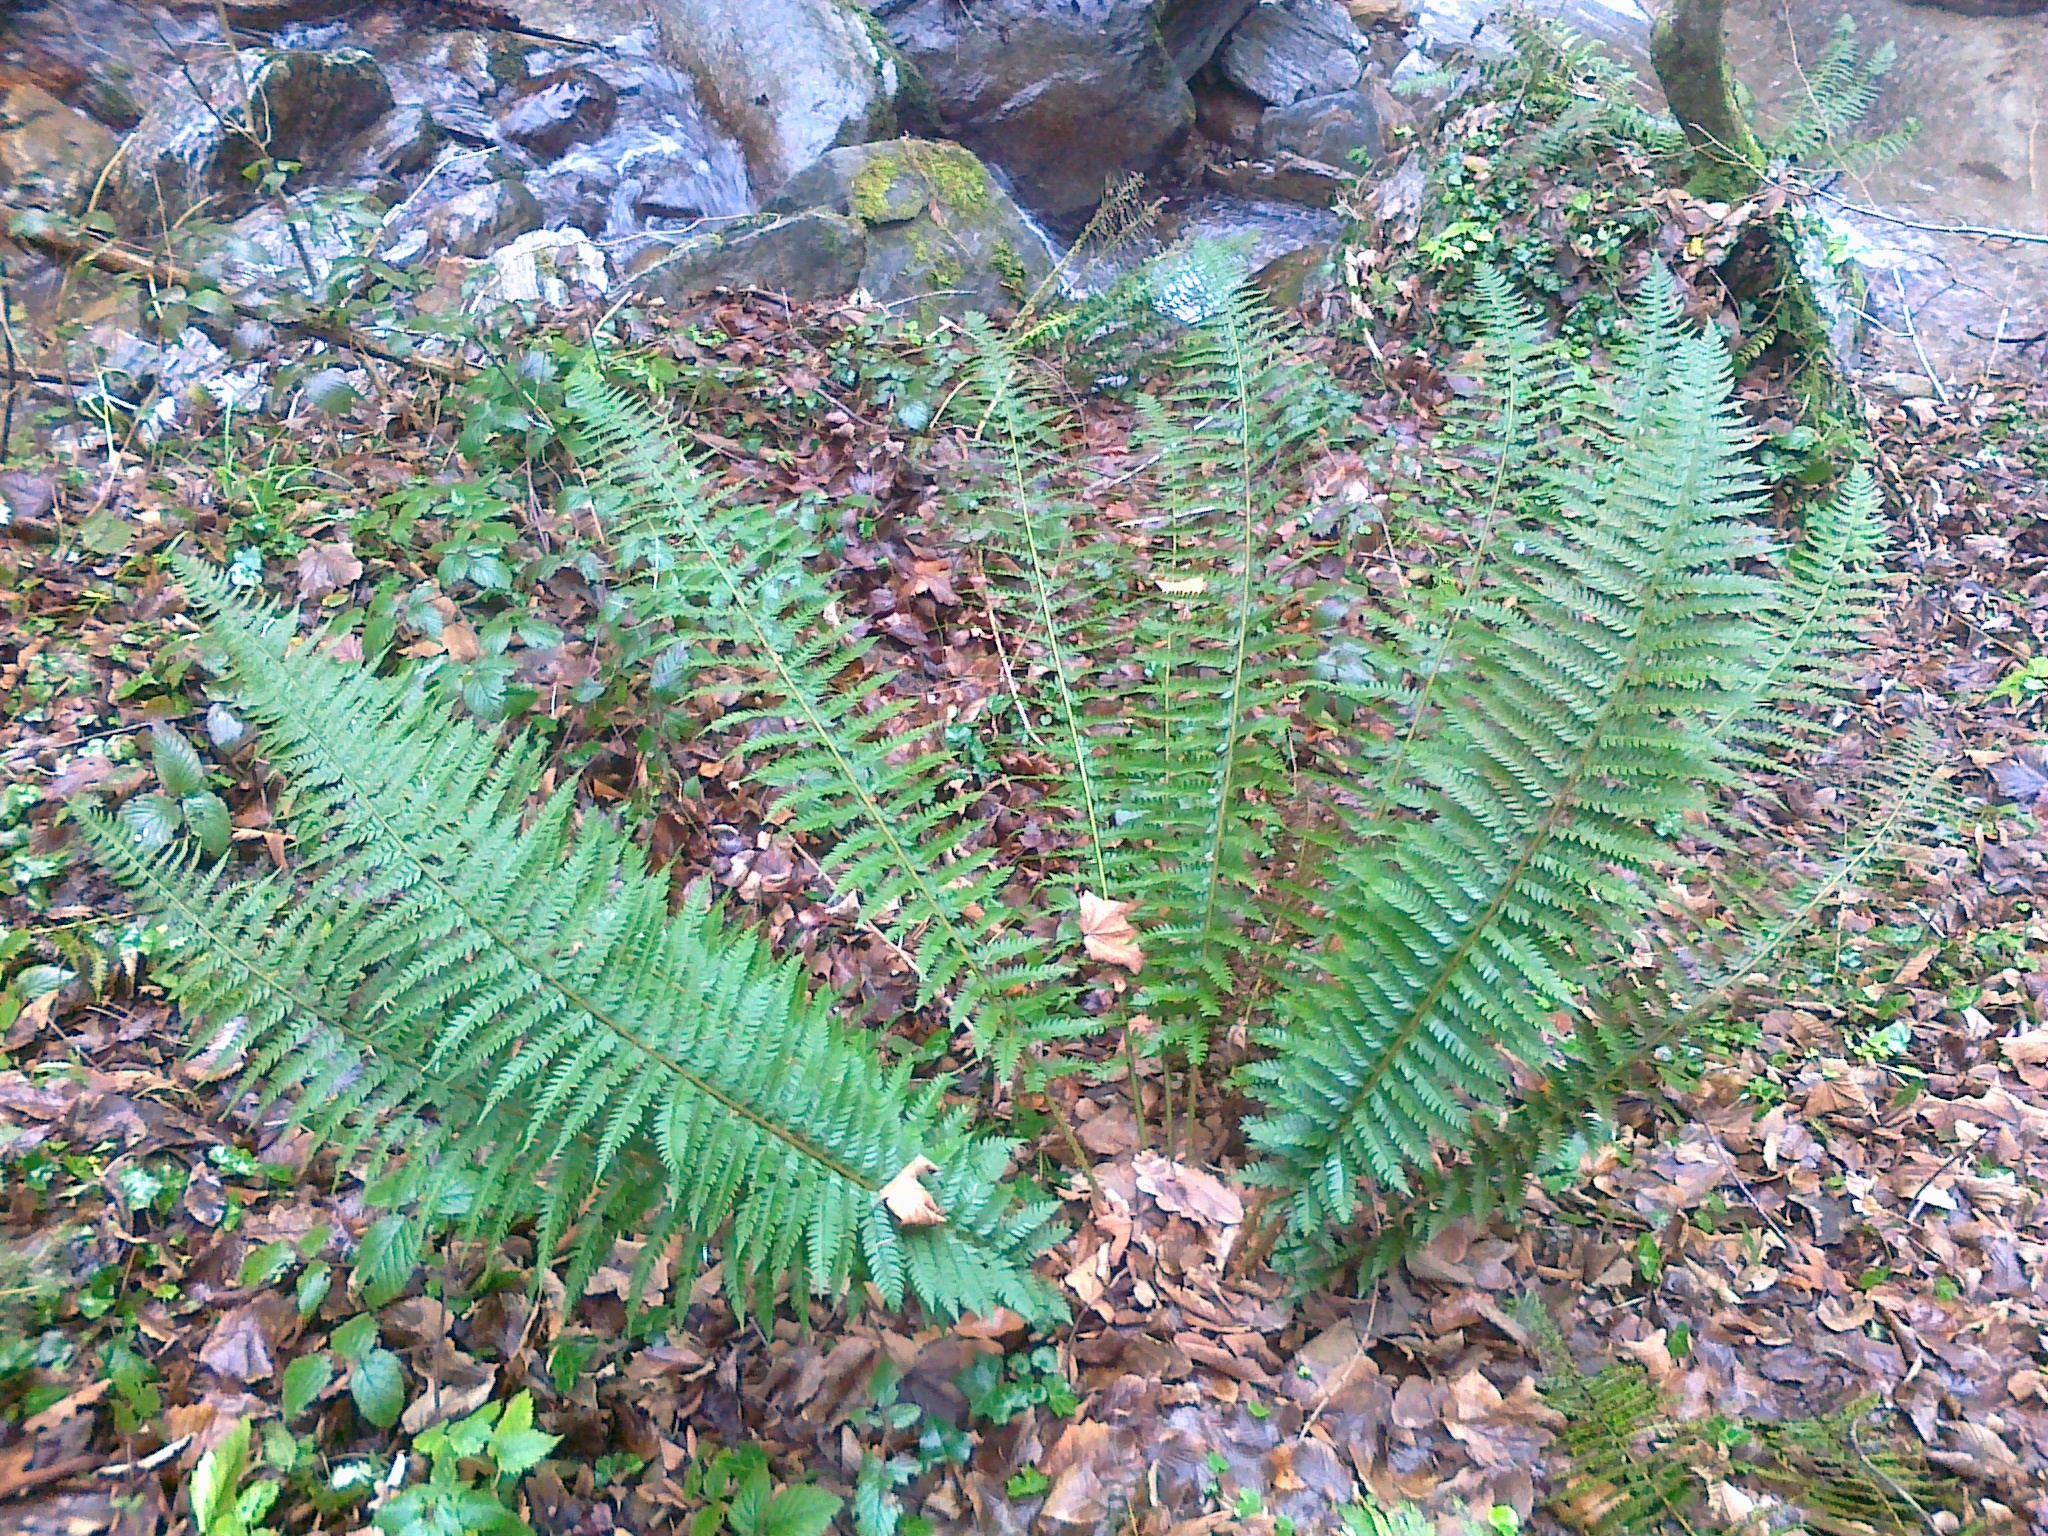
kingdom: Plantae
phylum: Tracheophyta
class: Polypodiopsida
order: Polypodiales
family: Dryopteridaceae
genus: Polystichum
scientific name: Polystichum aculeatum
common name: Hard shield-fern
